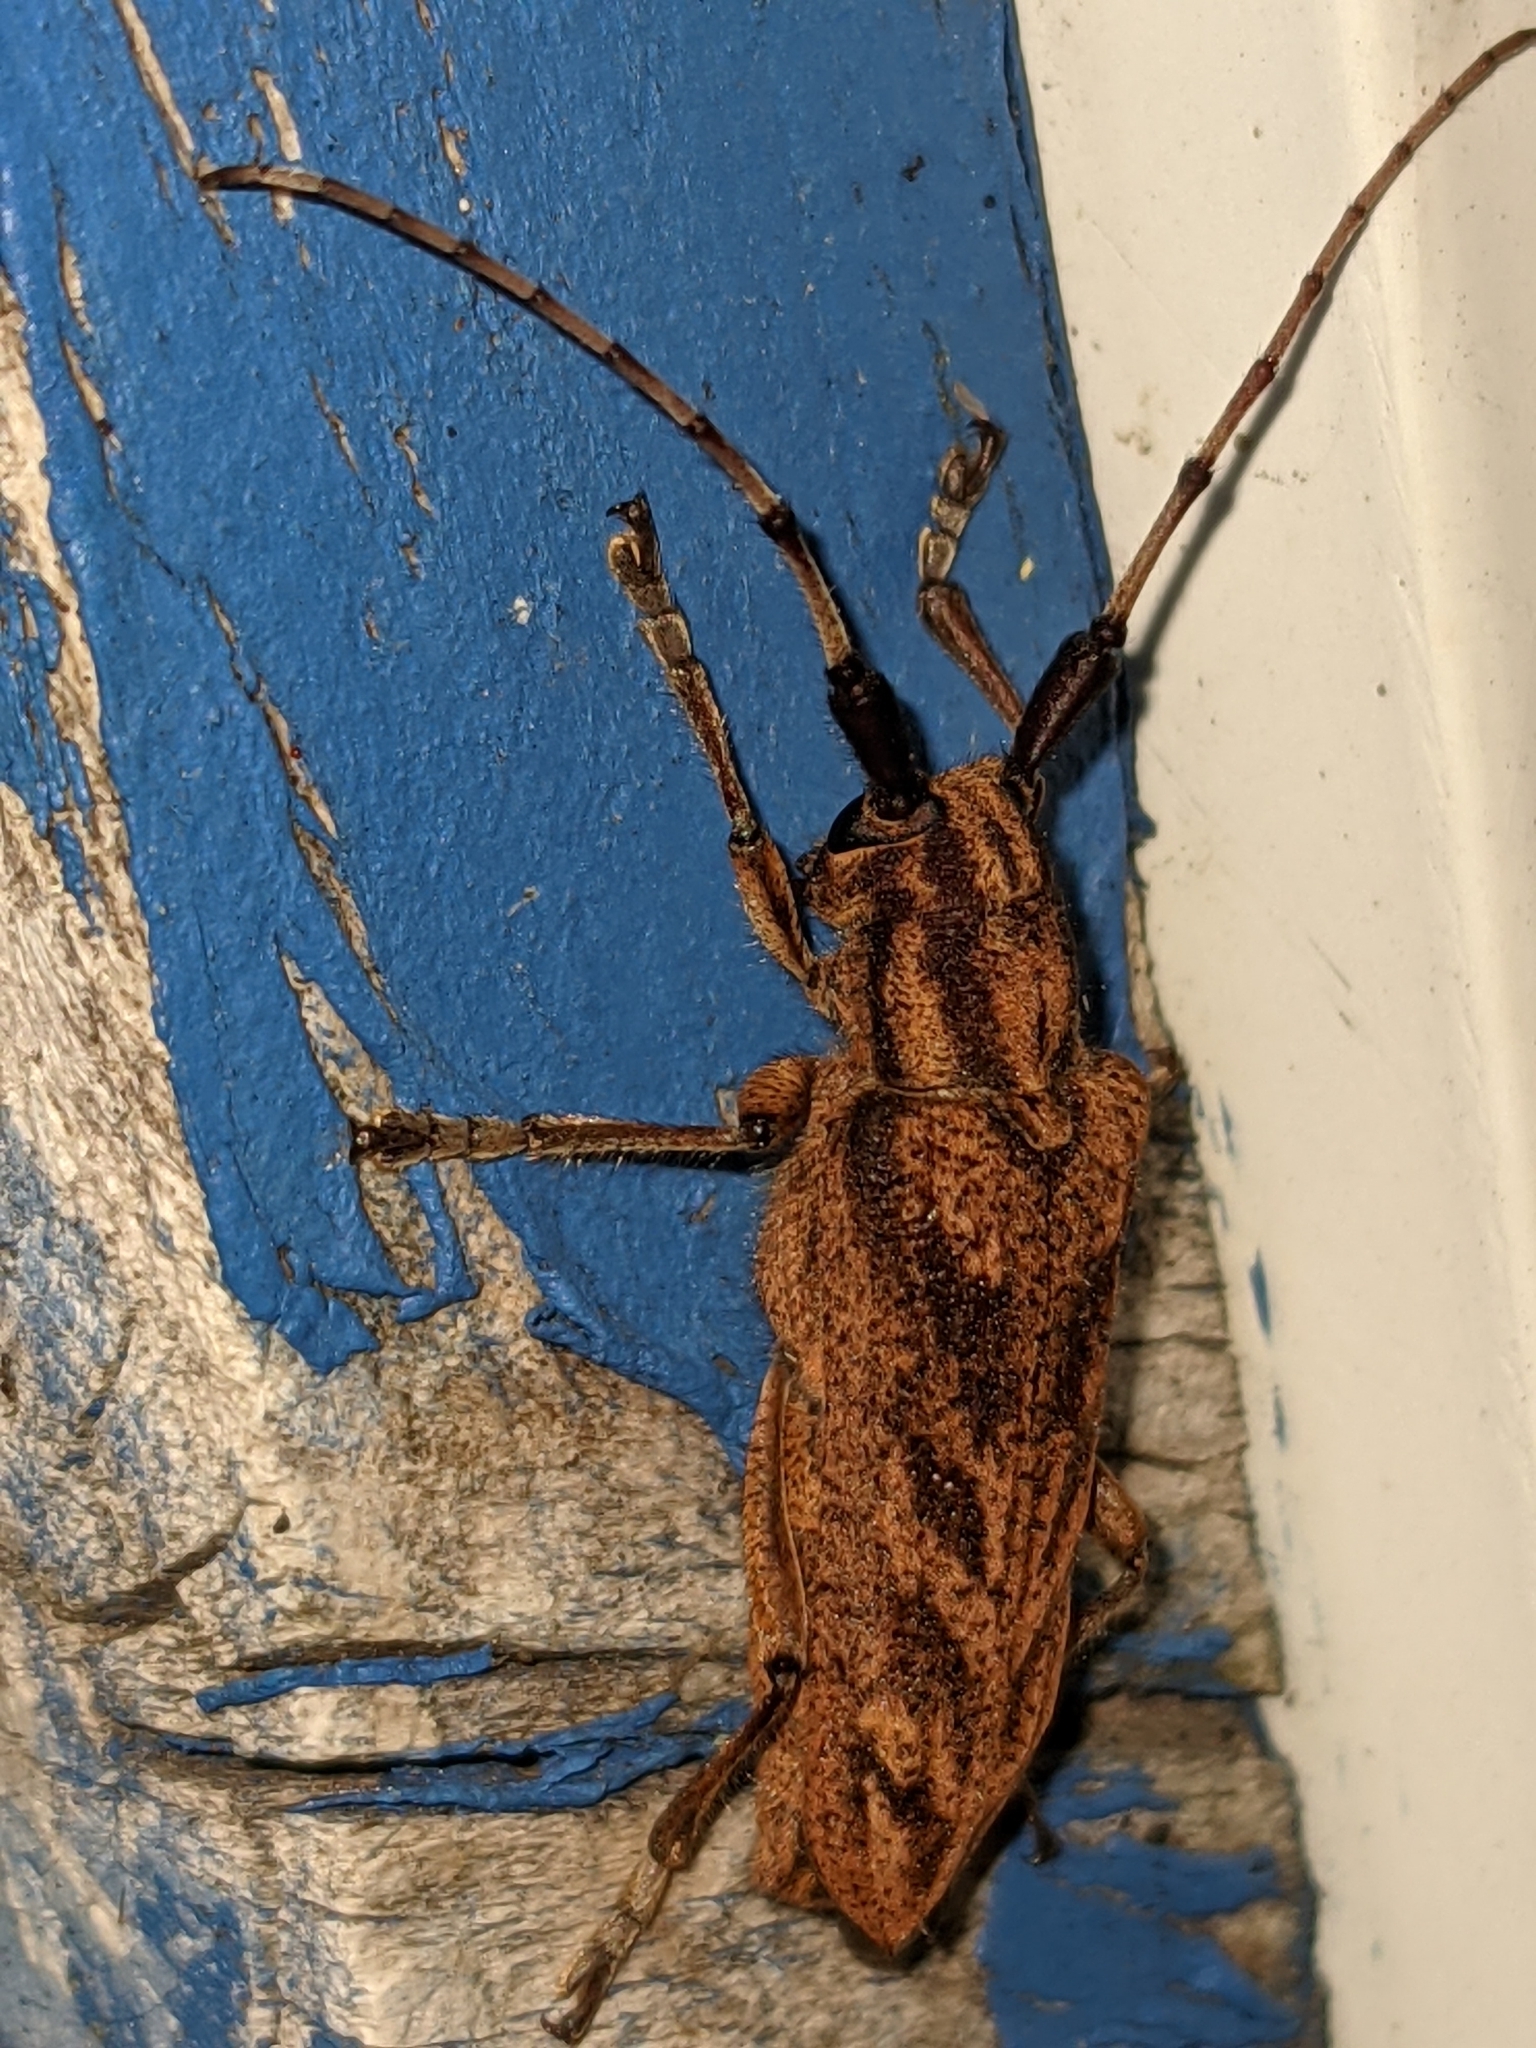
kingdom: Animalia
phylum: Arthropoda
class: Insecta
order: Coleoptera
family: Cerambycidae
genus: Saperda
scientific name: Saperda obliqua
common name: Alder borer
